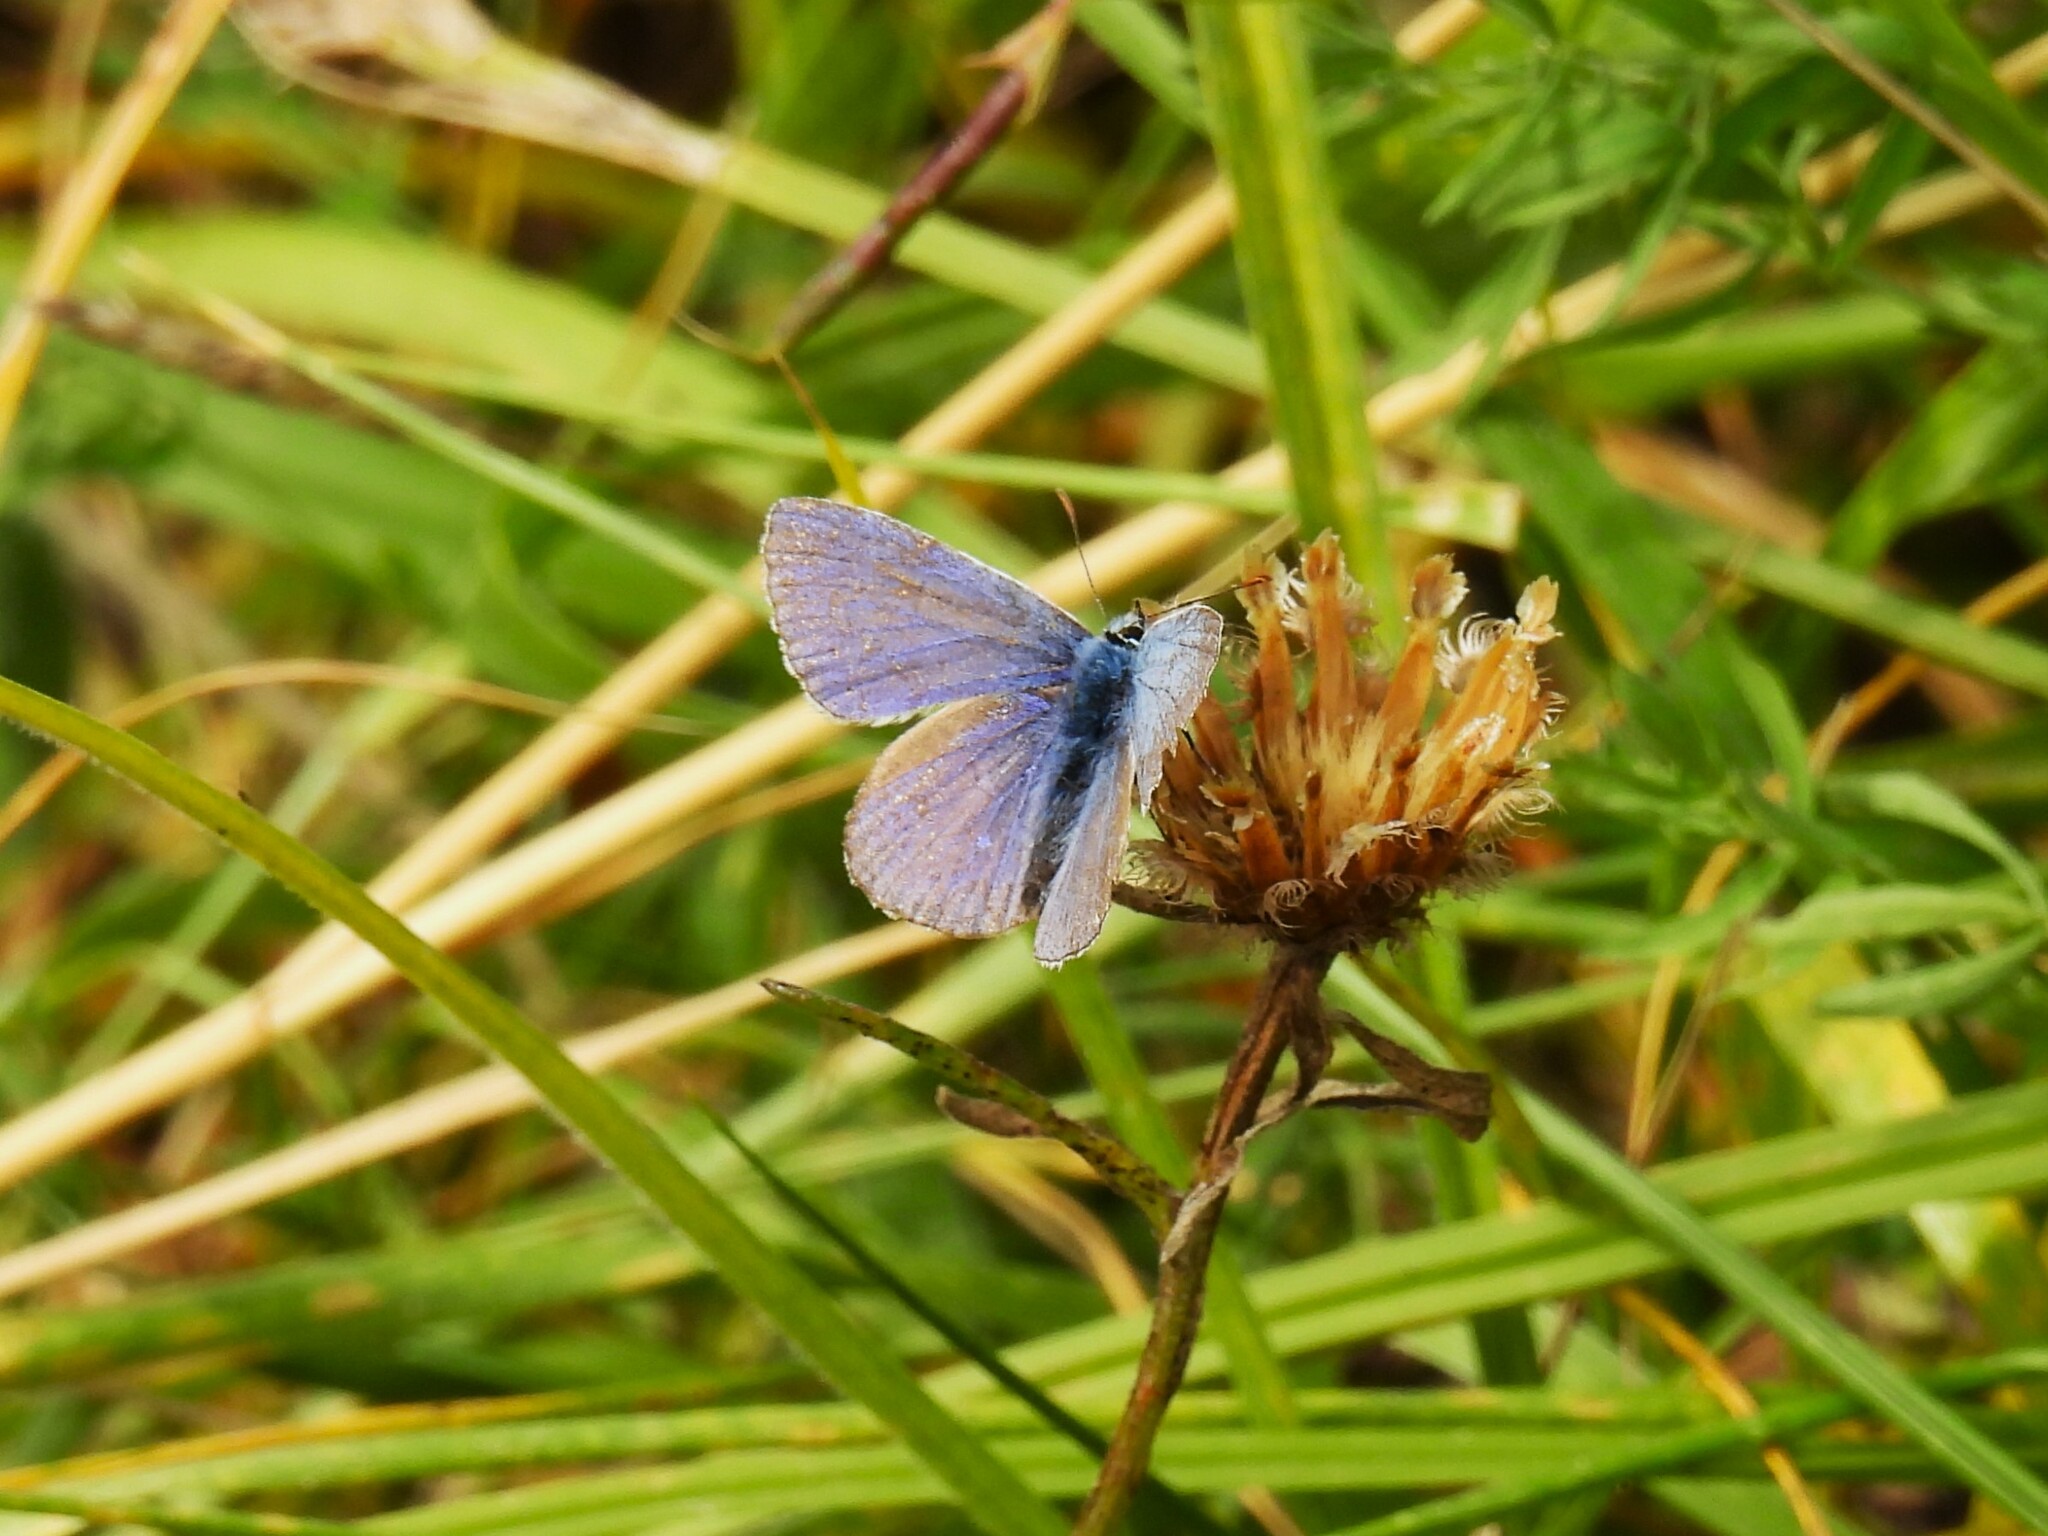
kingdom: Animalia
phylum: Arthropoda
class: Insecta
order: Lepidoptera
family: Lycaenidae
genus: Polyommatus
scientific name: Polyommatus icarus
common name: Common blue
